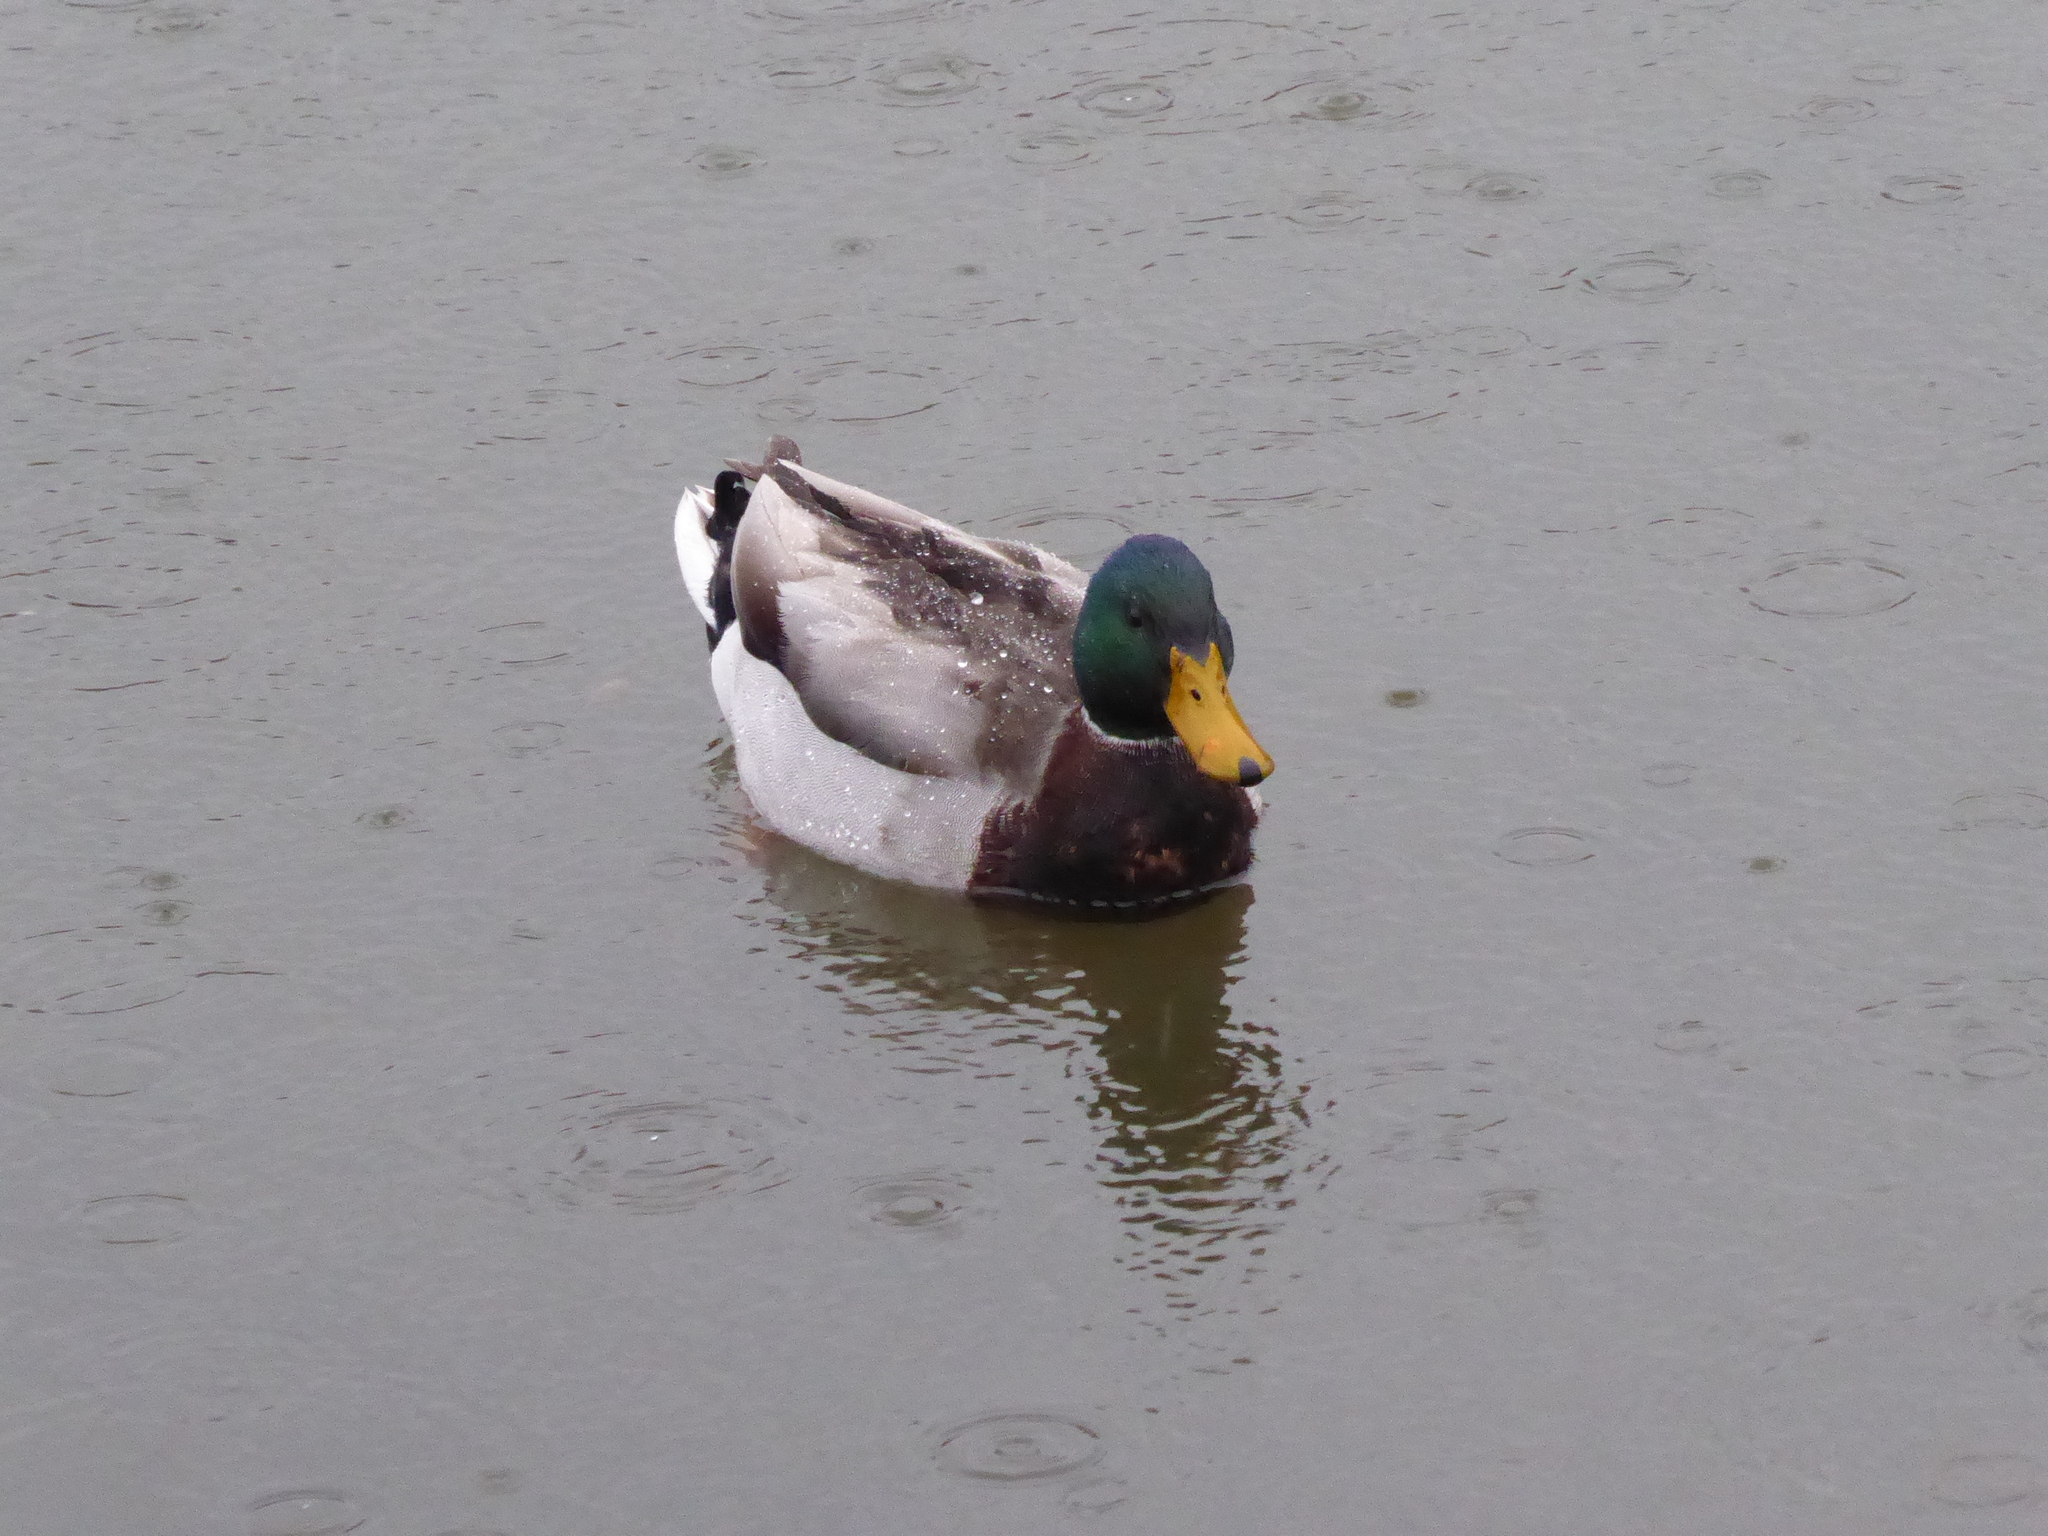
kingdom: Animalia
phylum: Chordata
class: Aves
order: Anseriformes
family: Anatidae
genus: Anas
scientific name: Anas platyrhynchos
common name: Mallard
